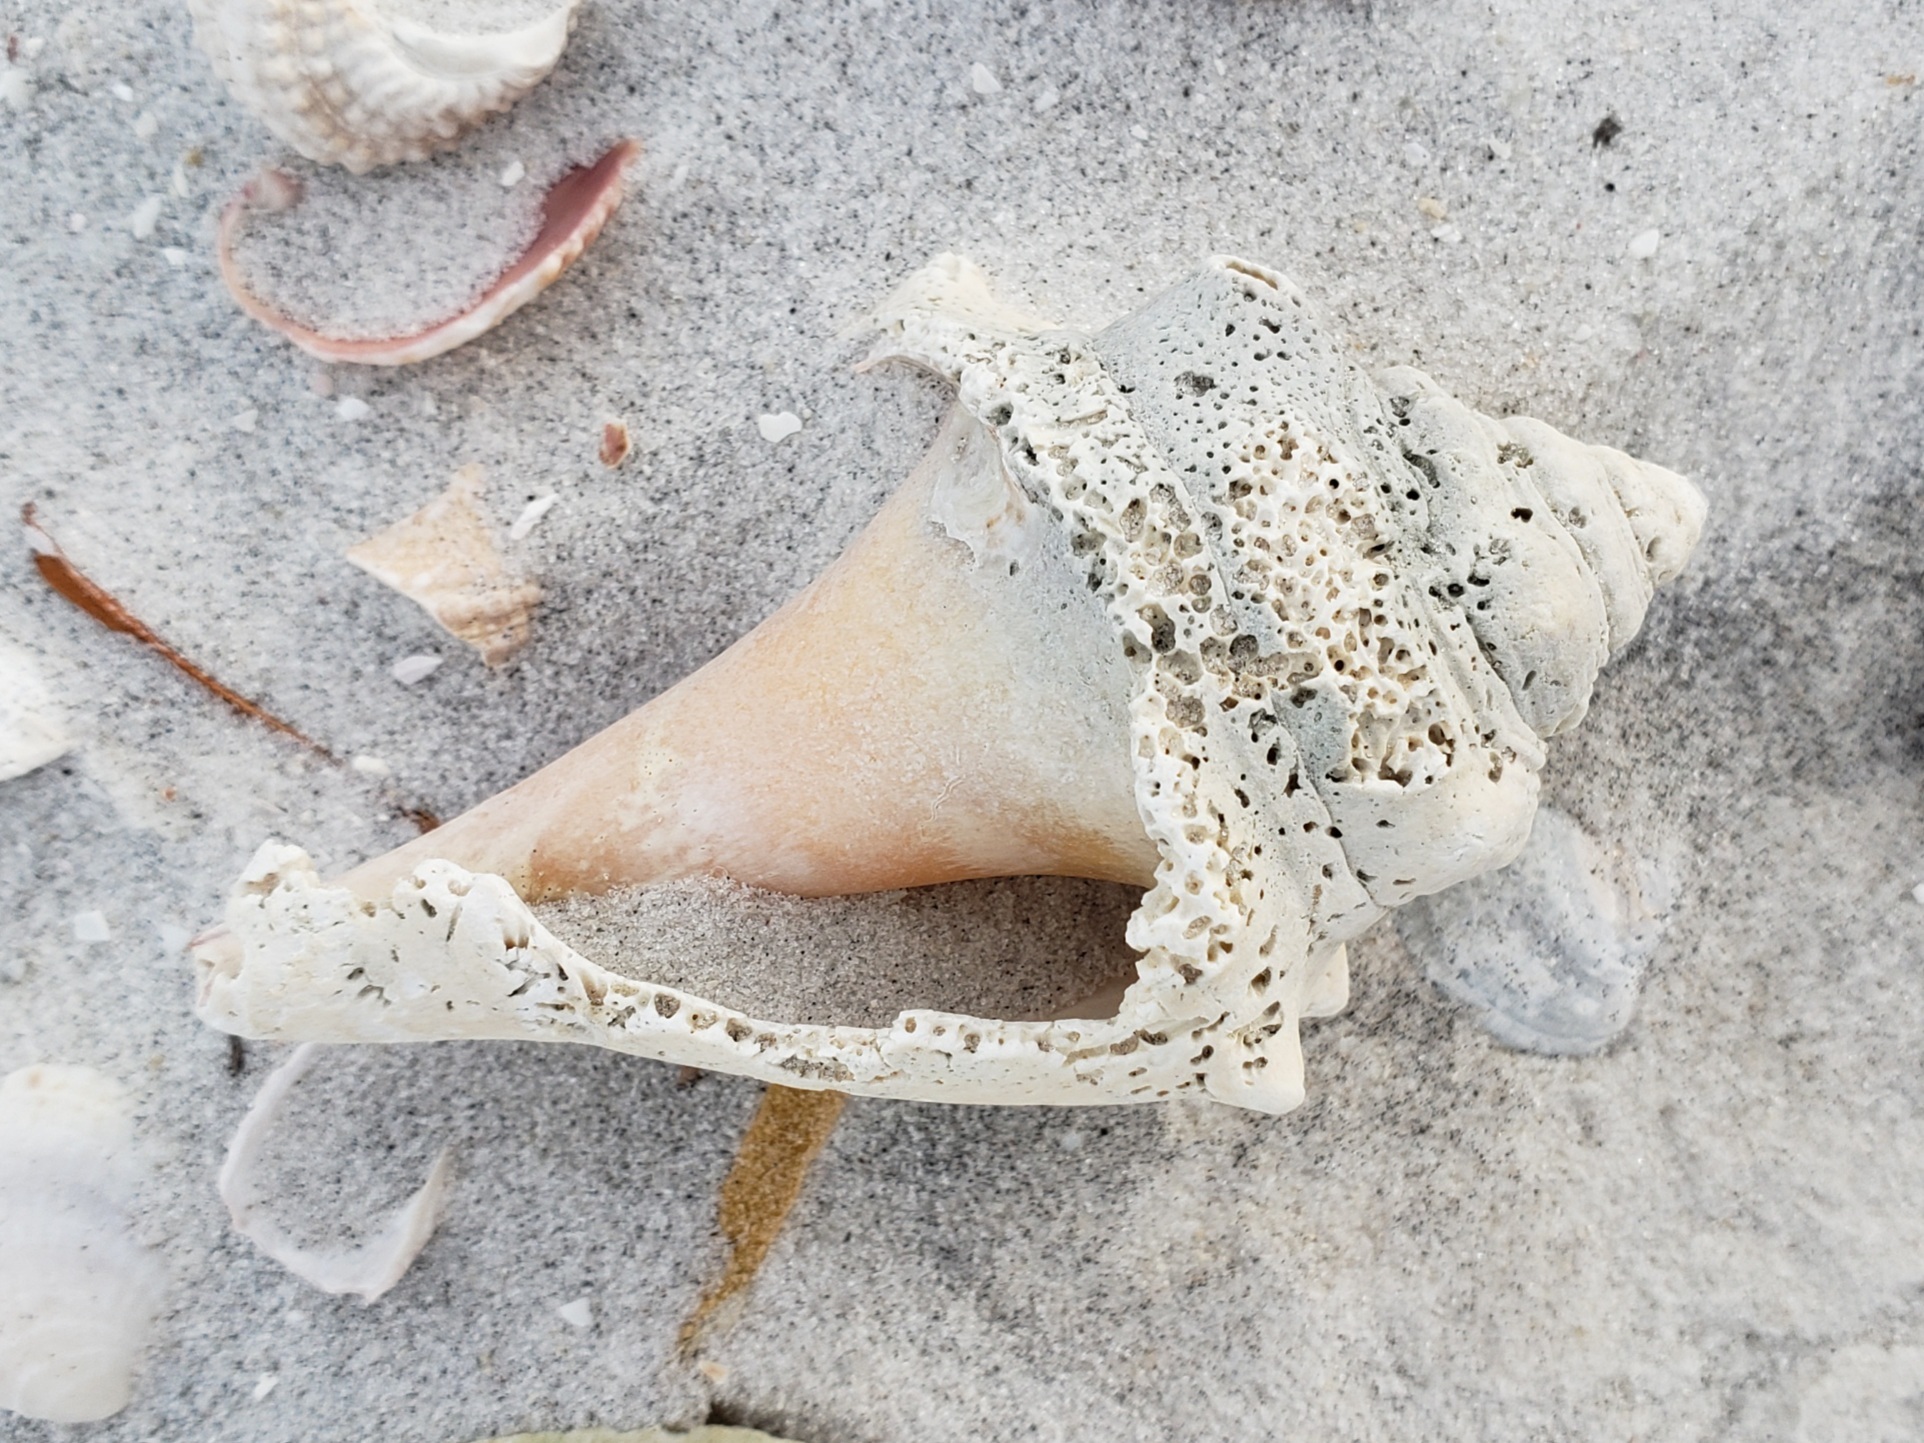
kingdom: Animalia
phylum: Mollusca
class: Gastropoda
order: Littorinimorpha
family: Strombidae
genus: Strombus
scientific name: Strombus alatus
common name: Florida fighting conch
